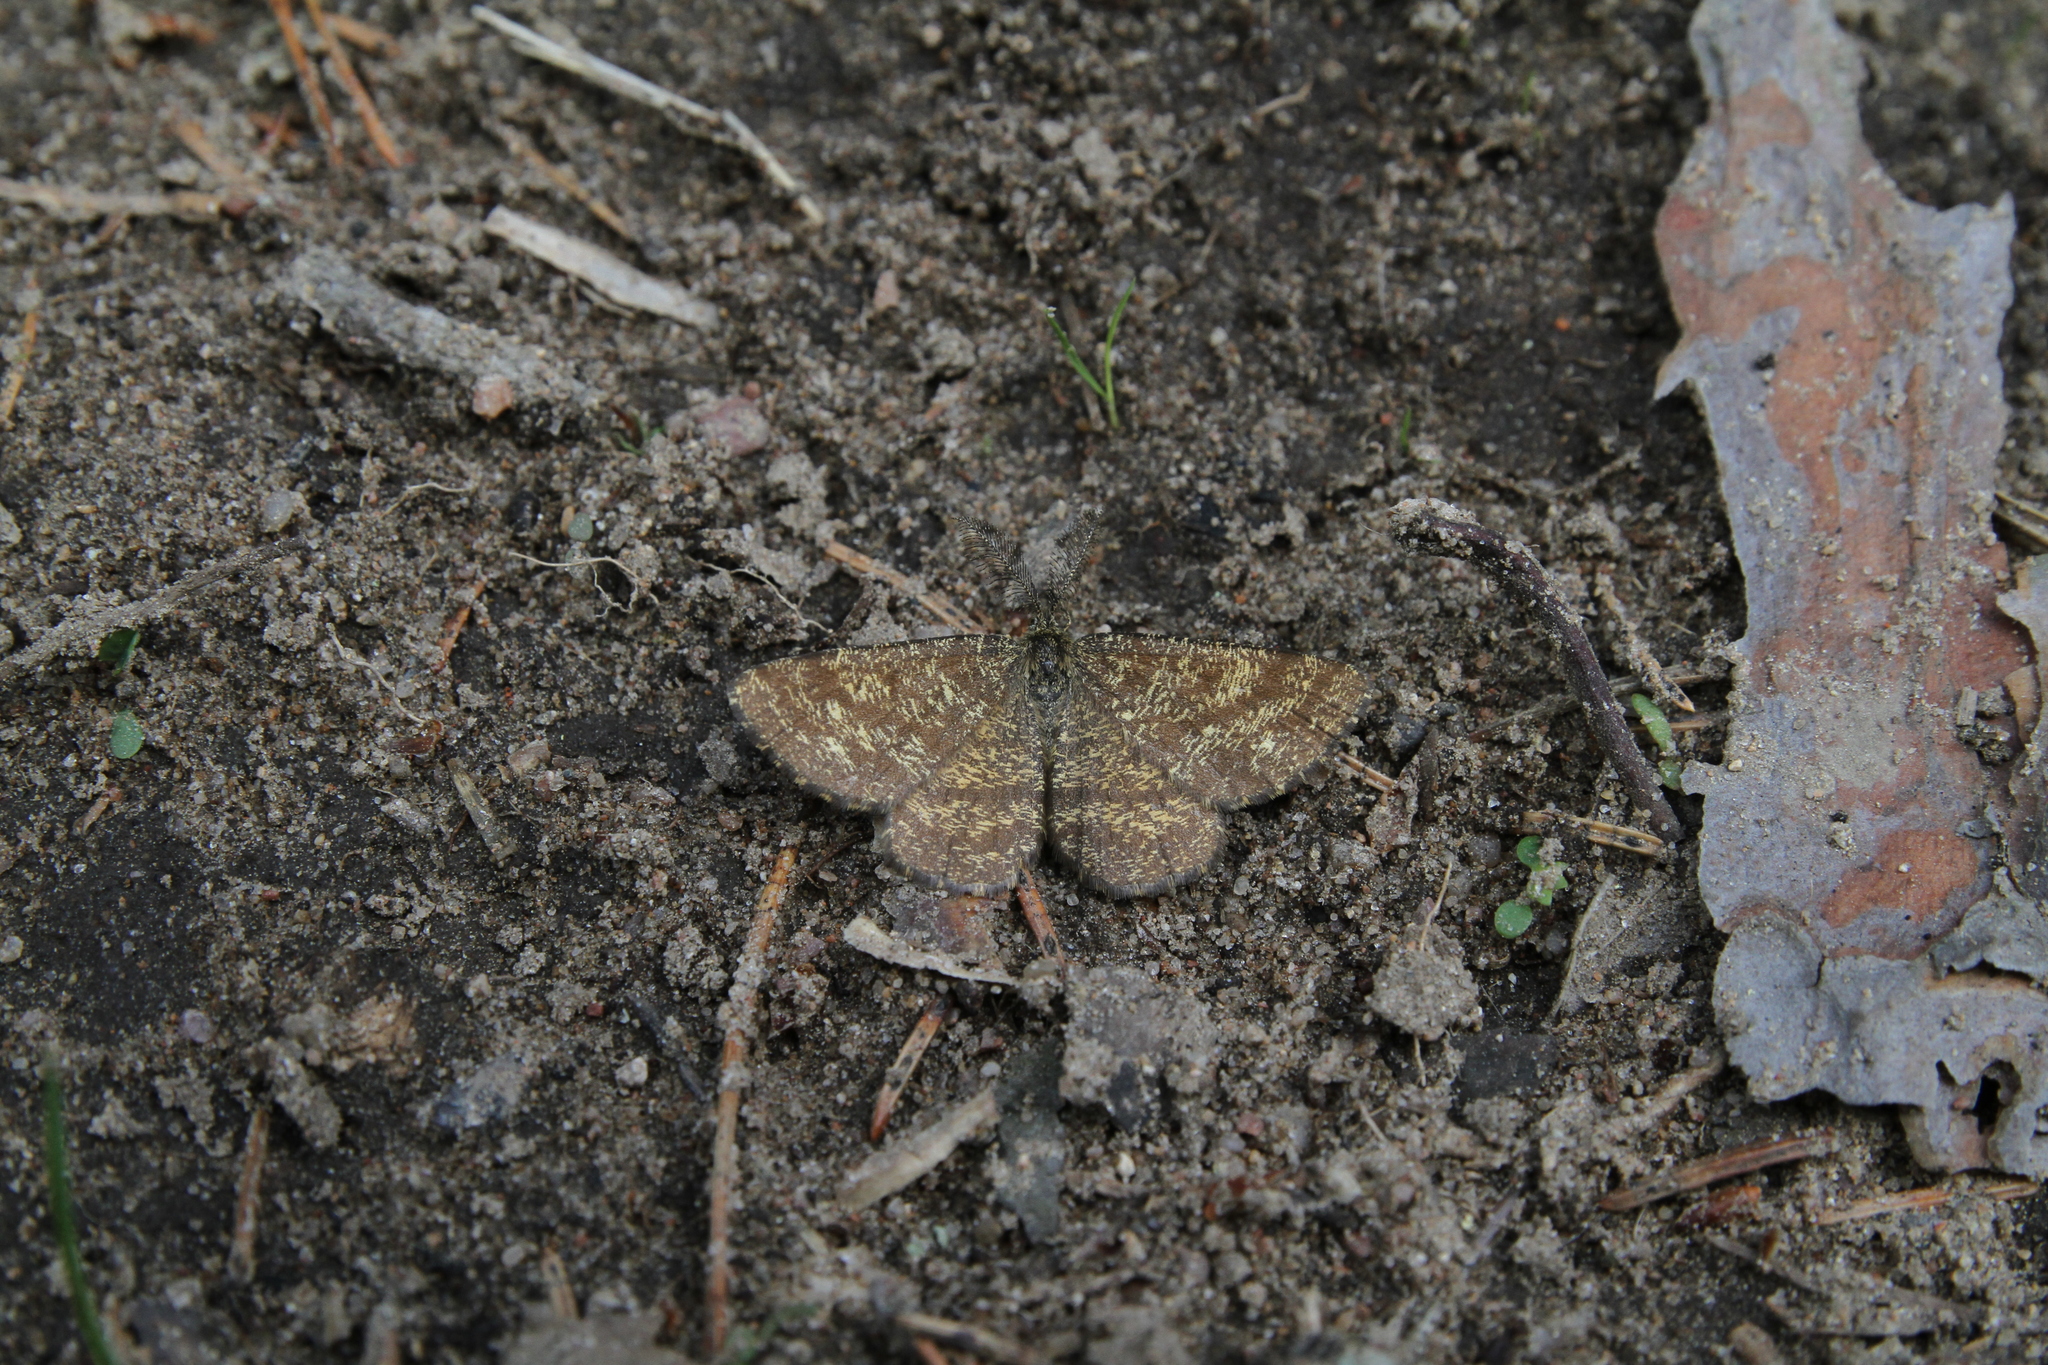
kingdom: Animalia
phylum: Arthropoda
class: Insecta
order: Lepidoptera
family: Geometridae
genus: Ematurga
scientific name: Ematurga atomaria
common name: Common heath
